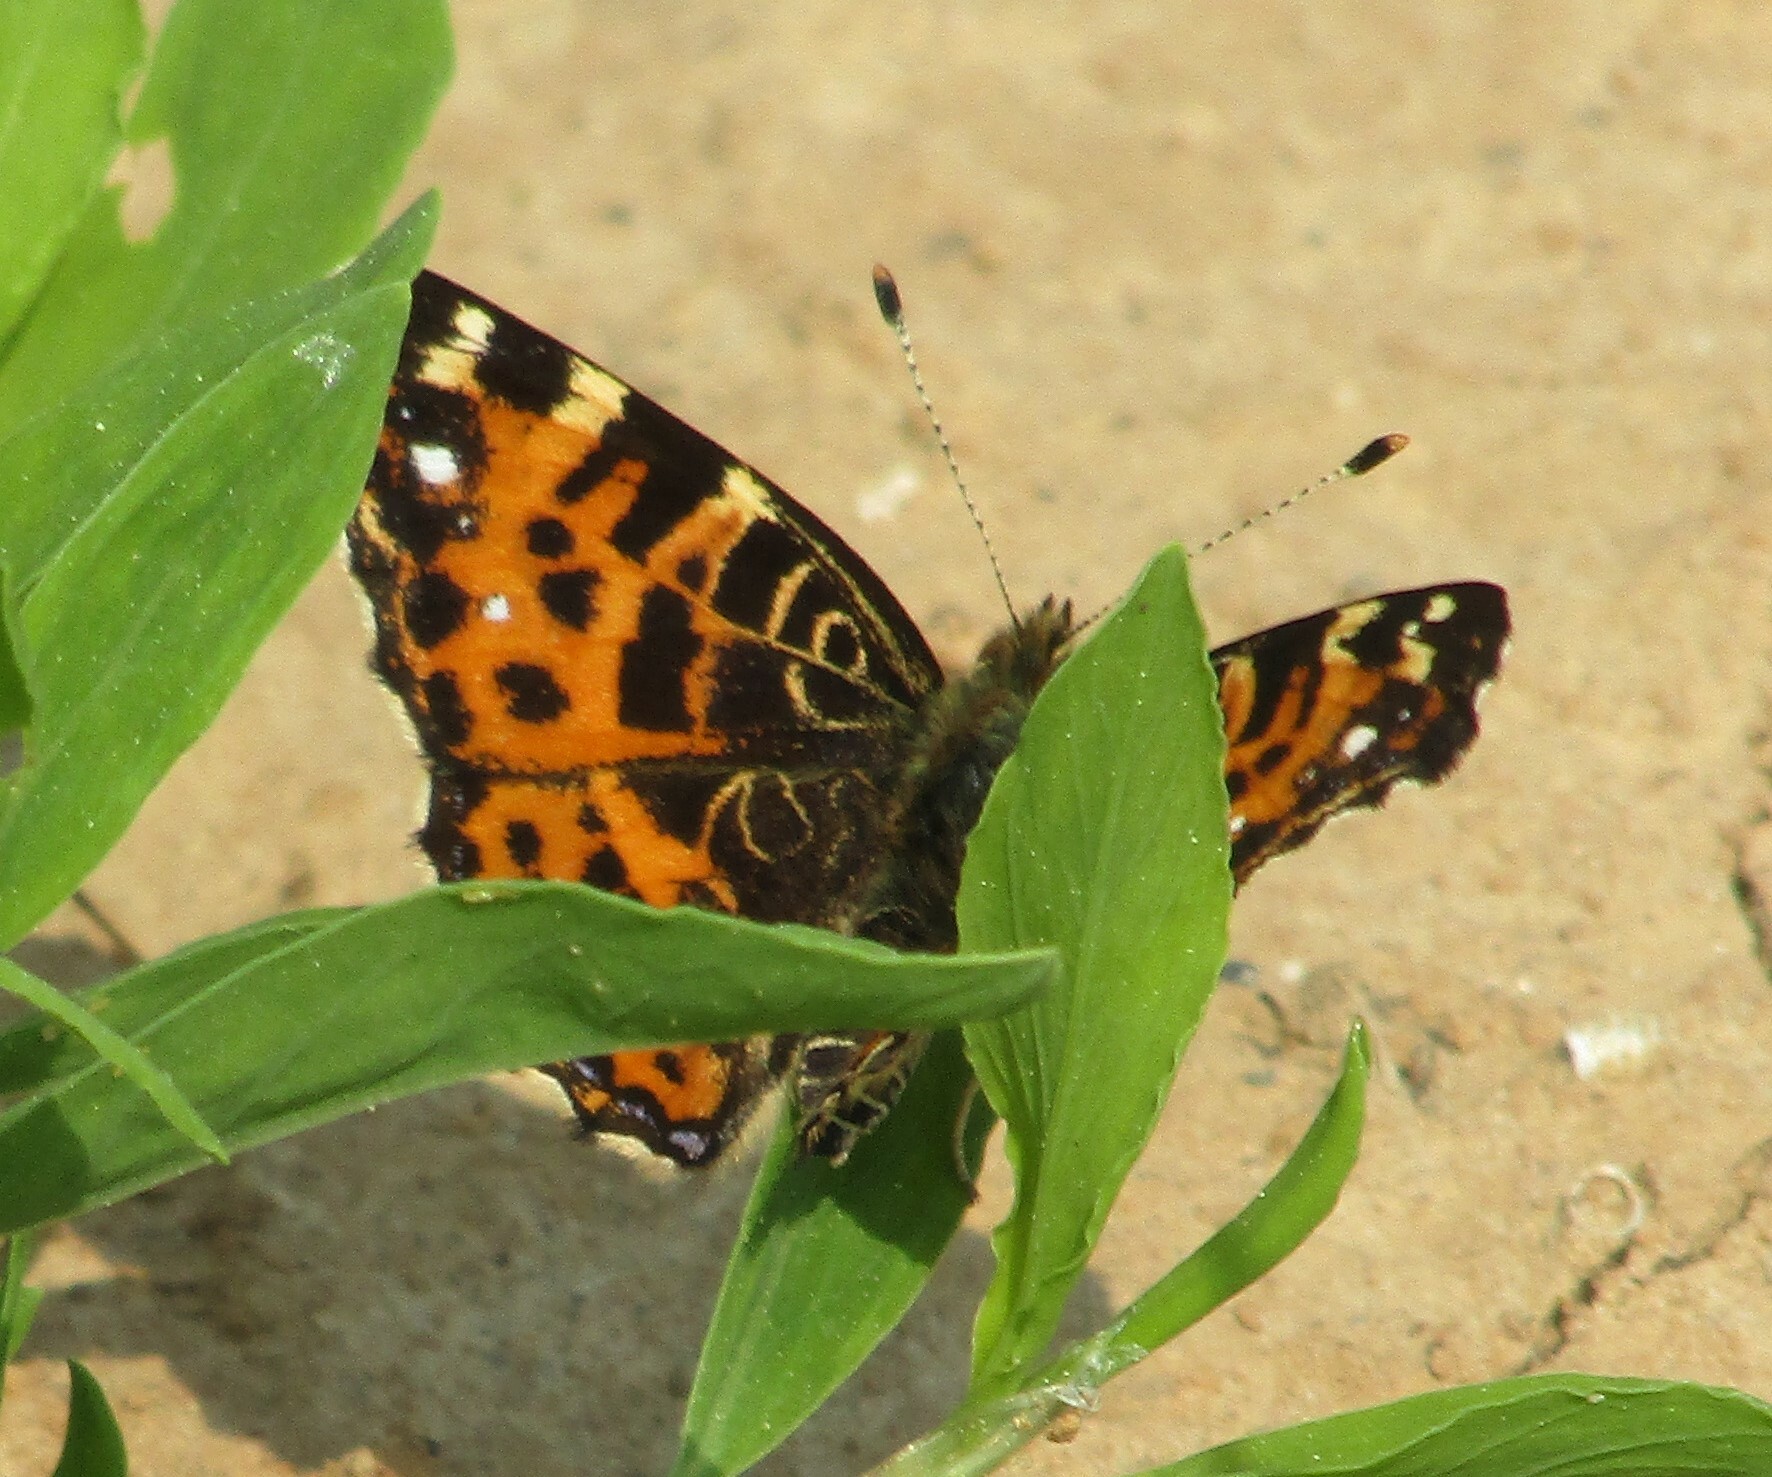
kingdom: Animalia
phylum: Arthropoda
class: Insecta
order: Lepidoptera
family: Nymphalidae
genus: Araschnia
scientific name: Araschnia levana
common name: Map butterfly
